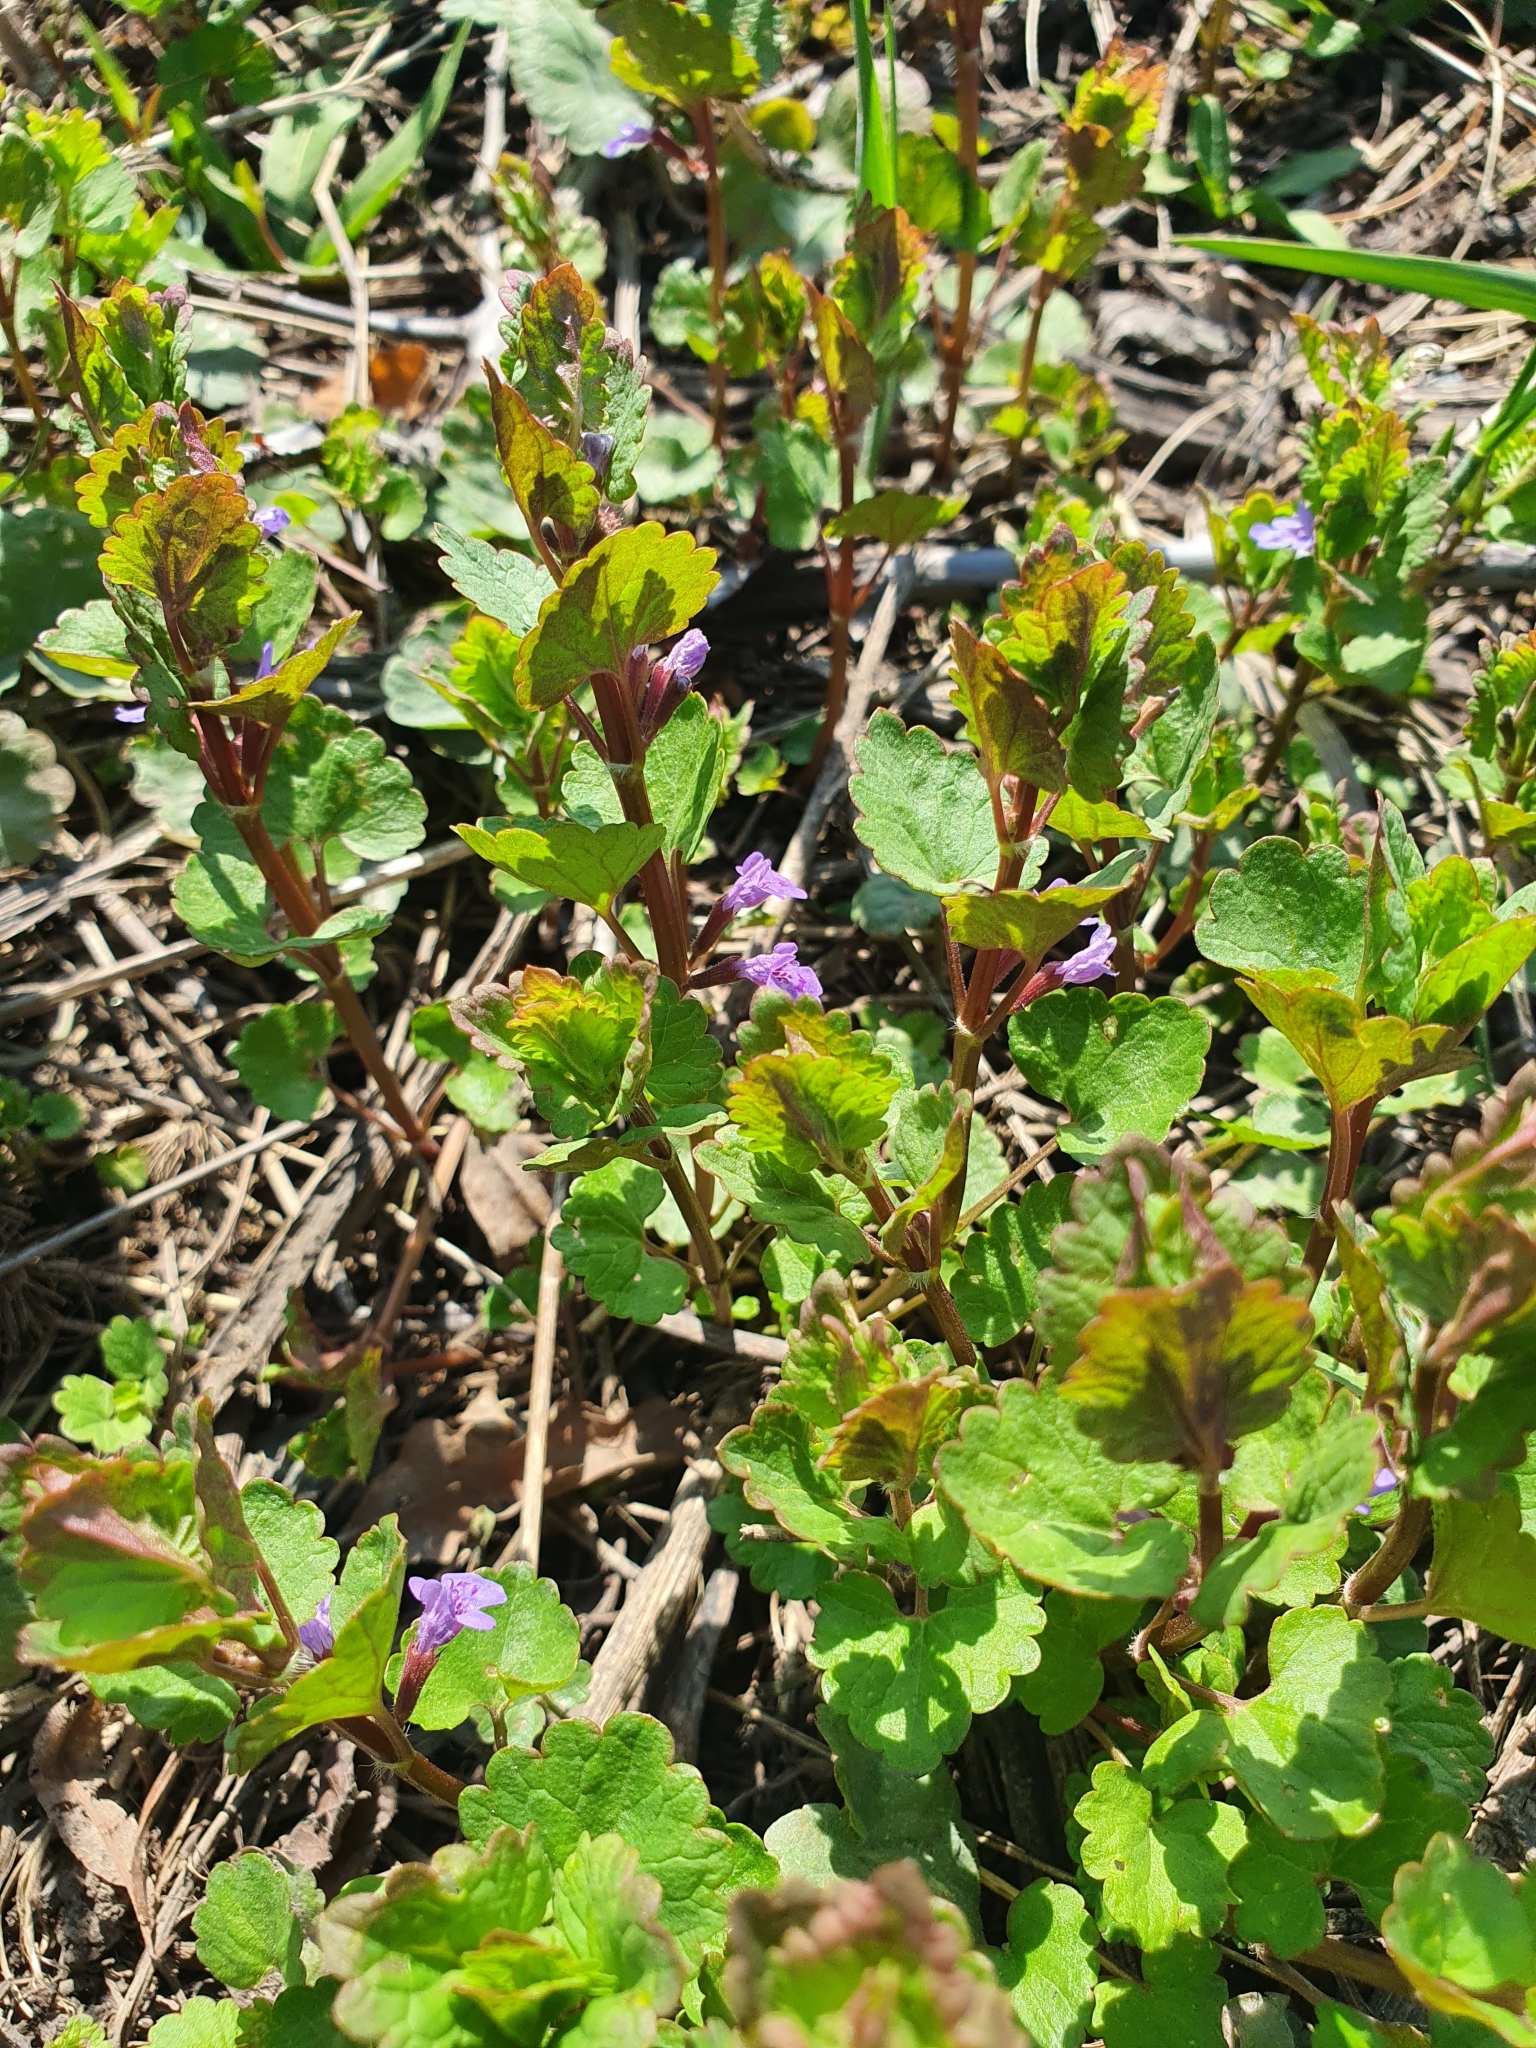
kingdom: Plantae
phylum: Tracheophyta
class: Magnoliopsida
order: Lamiales
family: Lamiaceae
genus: Glechoma
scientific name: Glechoma hederacea
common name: Ground ivy
